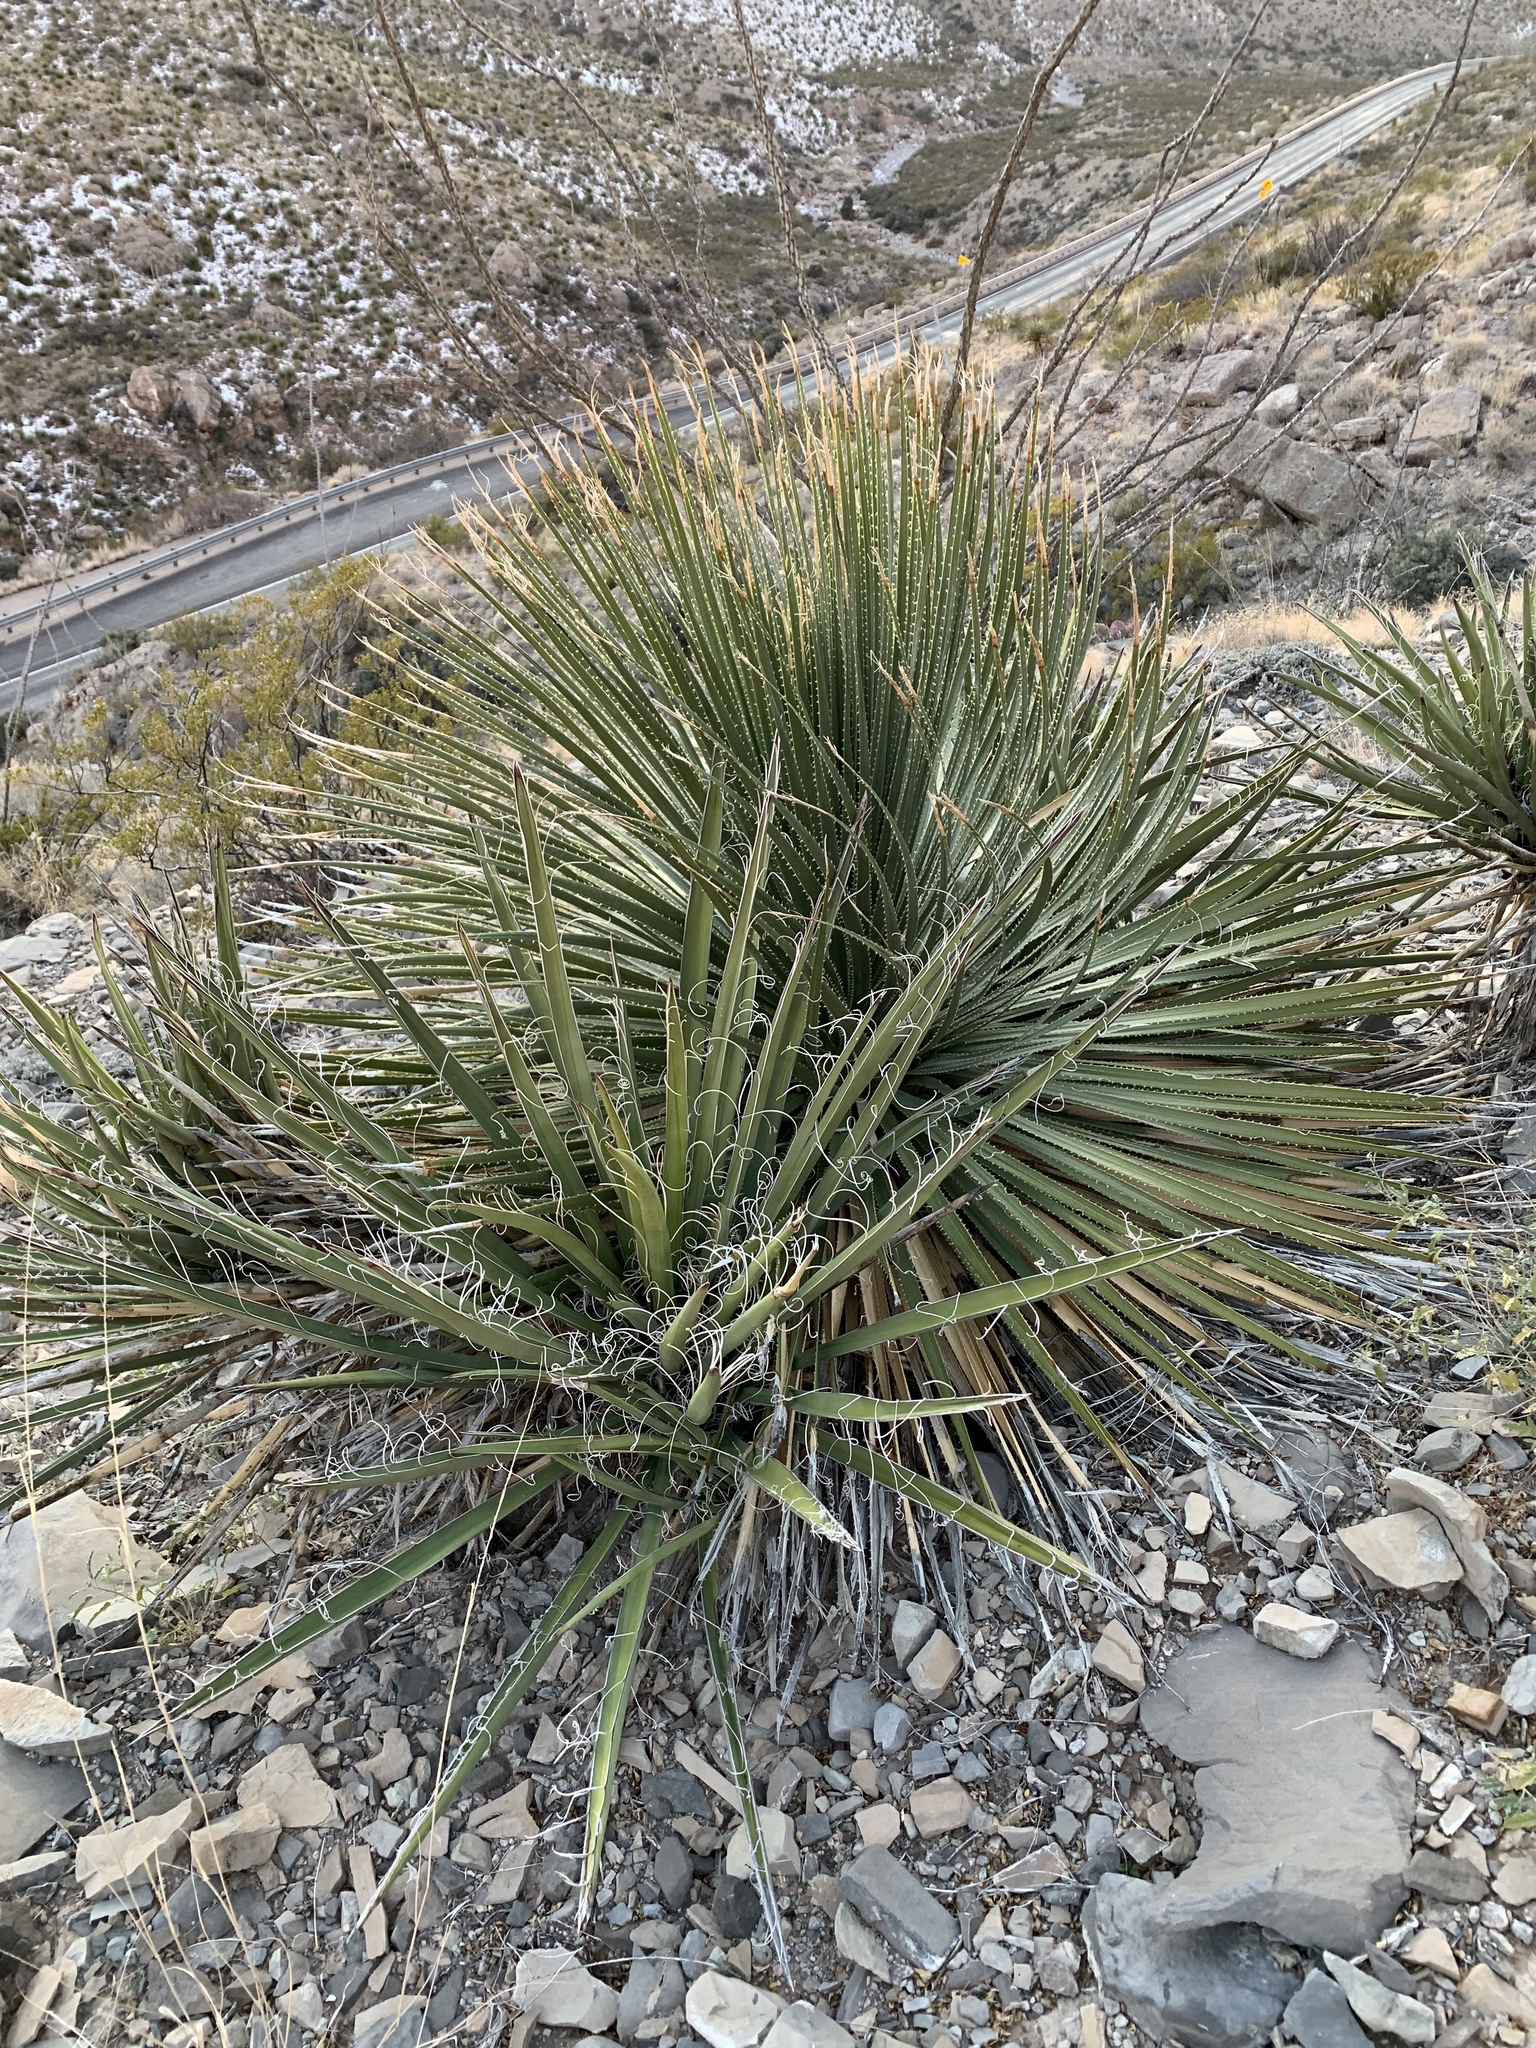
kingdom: Plantae
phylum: Tracheophyta
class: Liliopsida
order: Asparagales
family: Asparagaceae
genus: Dasylirion
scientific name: Dasylirion wheeleri
